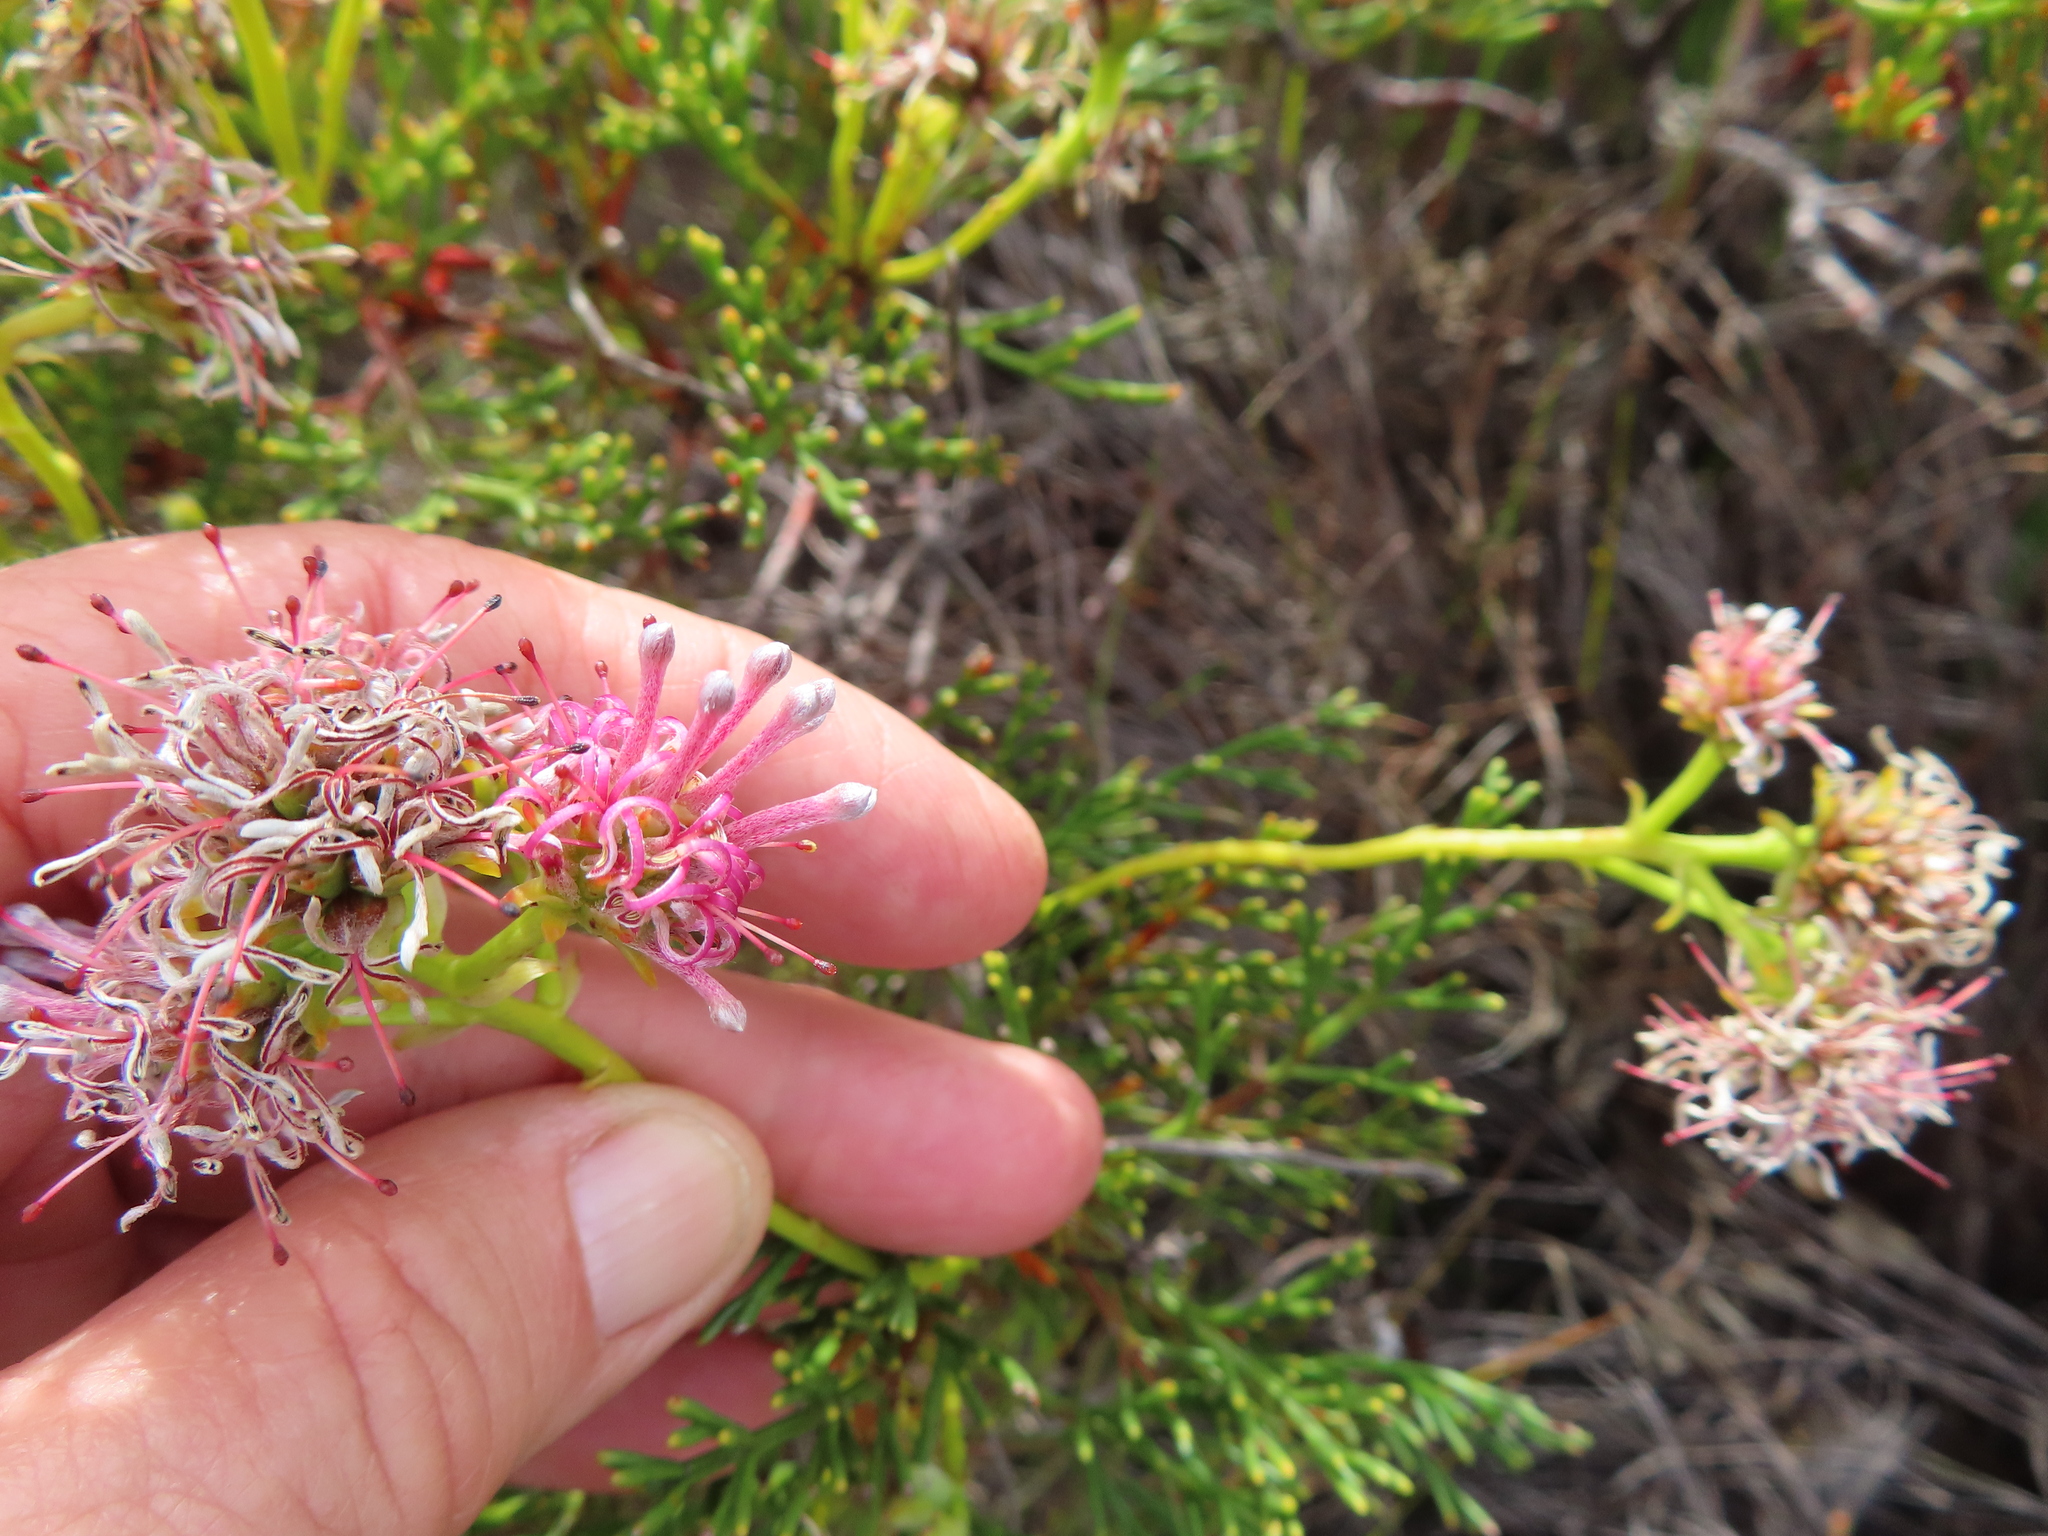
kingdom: Plantae
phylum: Tracheophyta
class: Magnoliopsida
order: Proteales
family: Proteaceae
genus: Serruria
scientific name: Serruria elongata
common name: Long-stalk spiderhead
